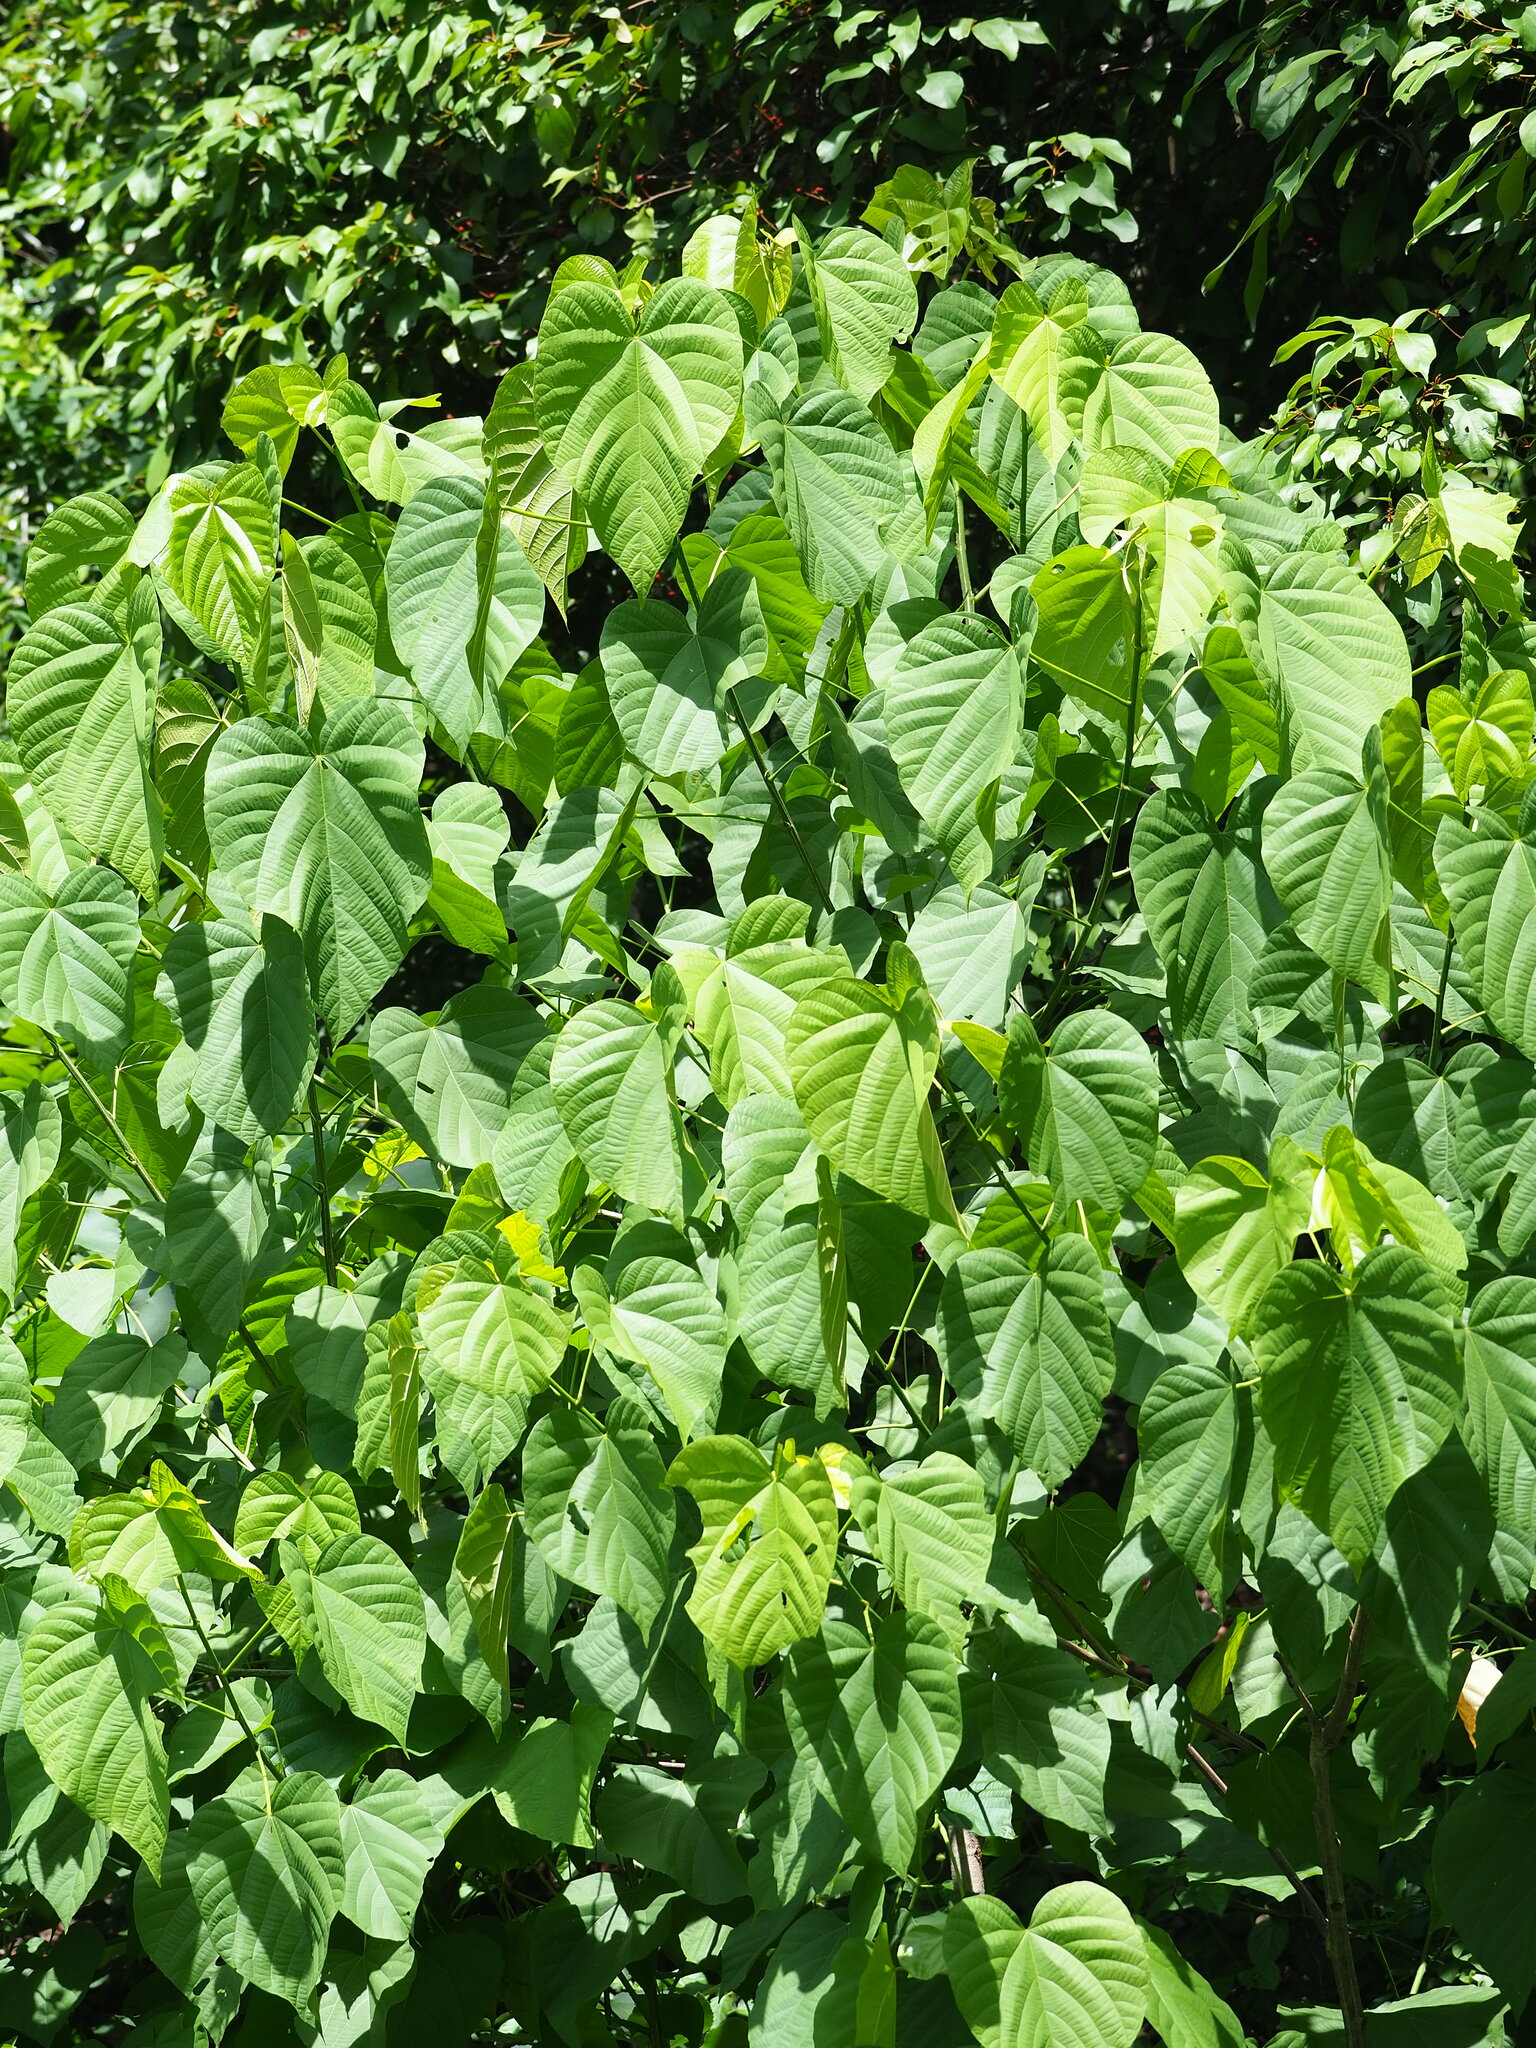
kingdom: Plantae
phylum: Tracheophyta
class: Magnoliopsida
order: Malvales
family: Malvaceae
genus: Kleinhovia
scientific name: Kleinhovia hospita
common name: Guest-tree
